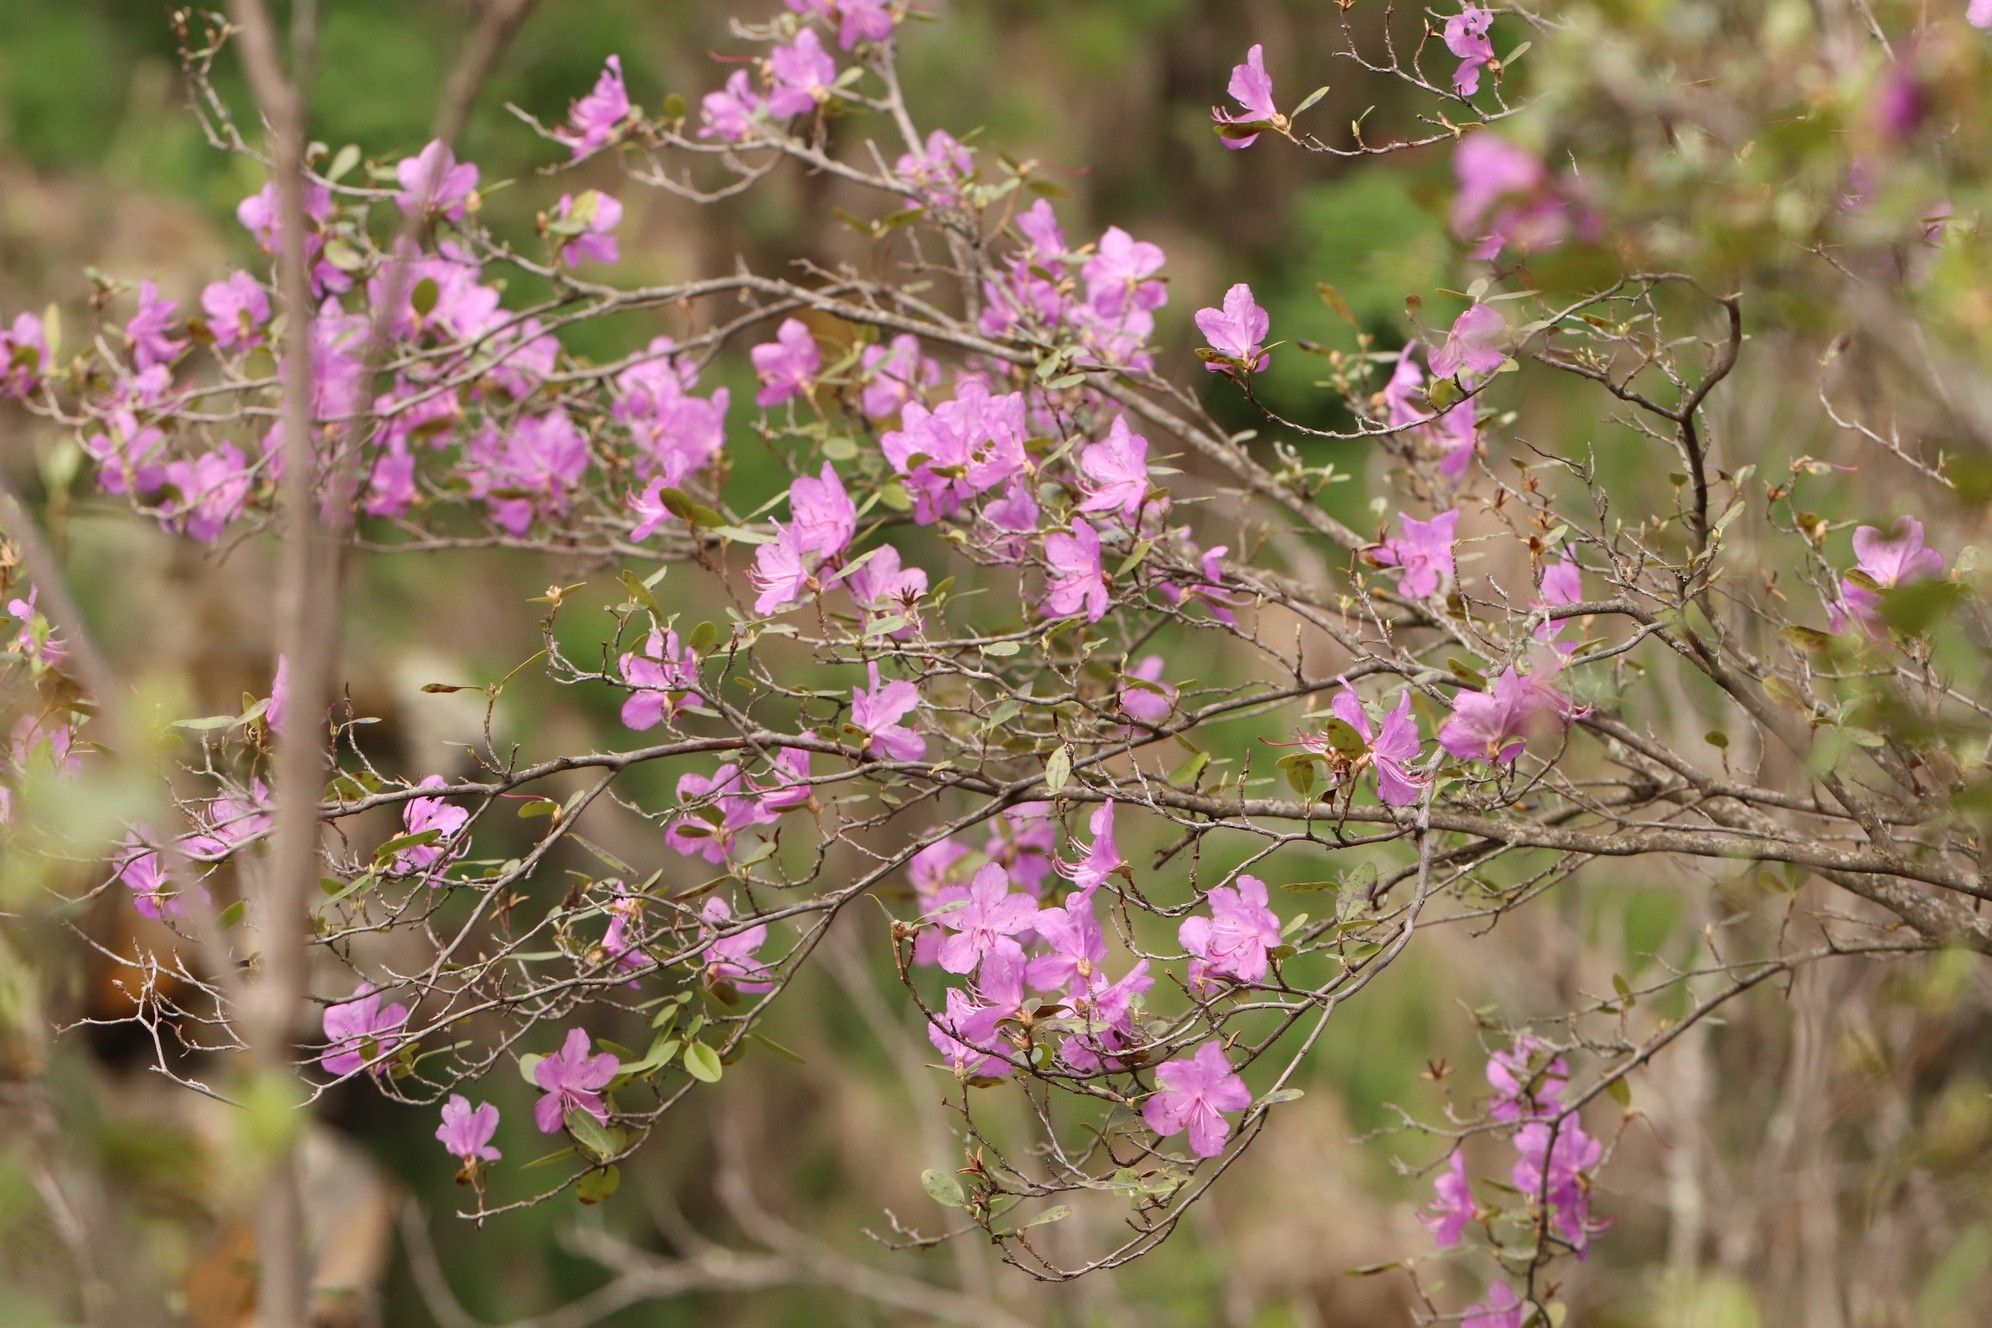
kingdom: Plantae
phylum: Tracheophyta
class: Magnoliopsida
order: Ericales
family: Ericaceae
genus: Rhododendron
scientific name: Rhododendron dauricum
